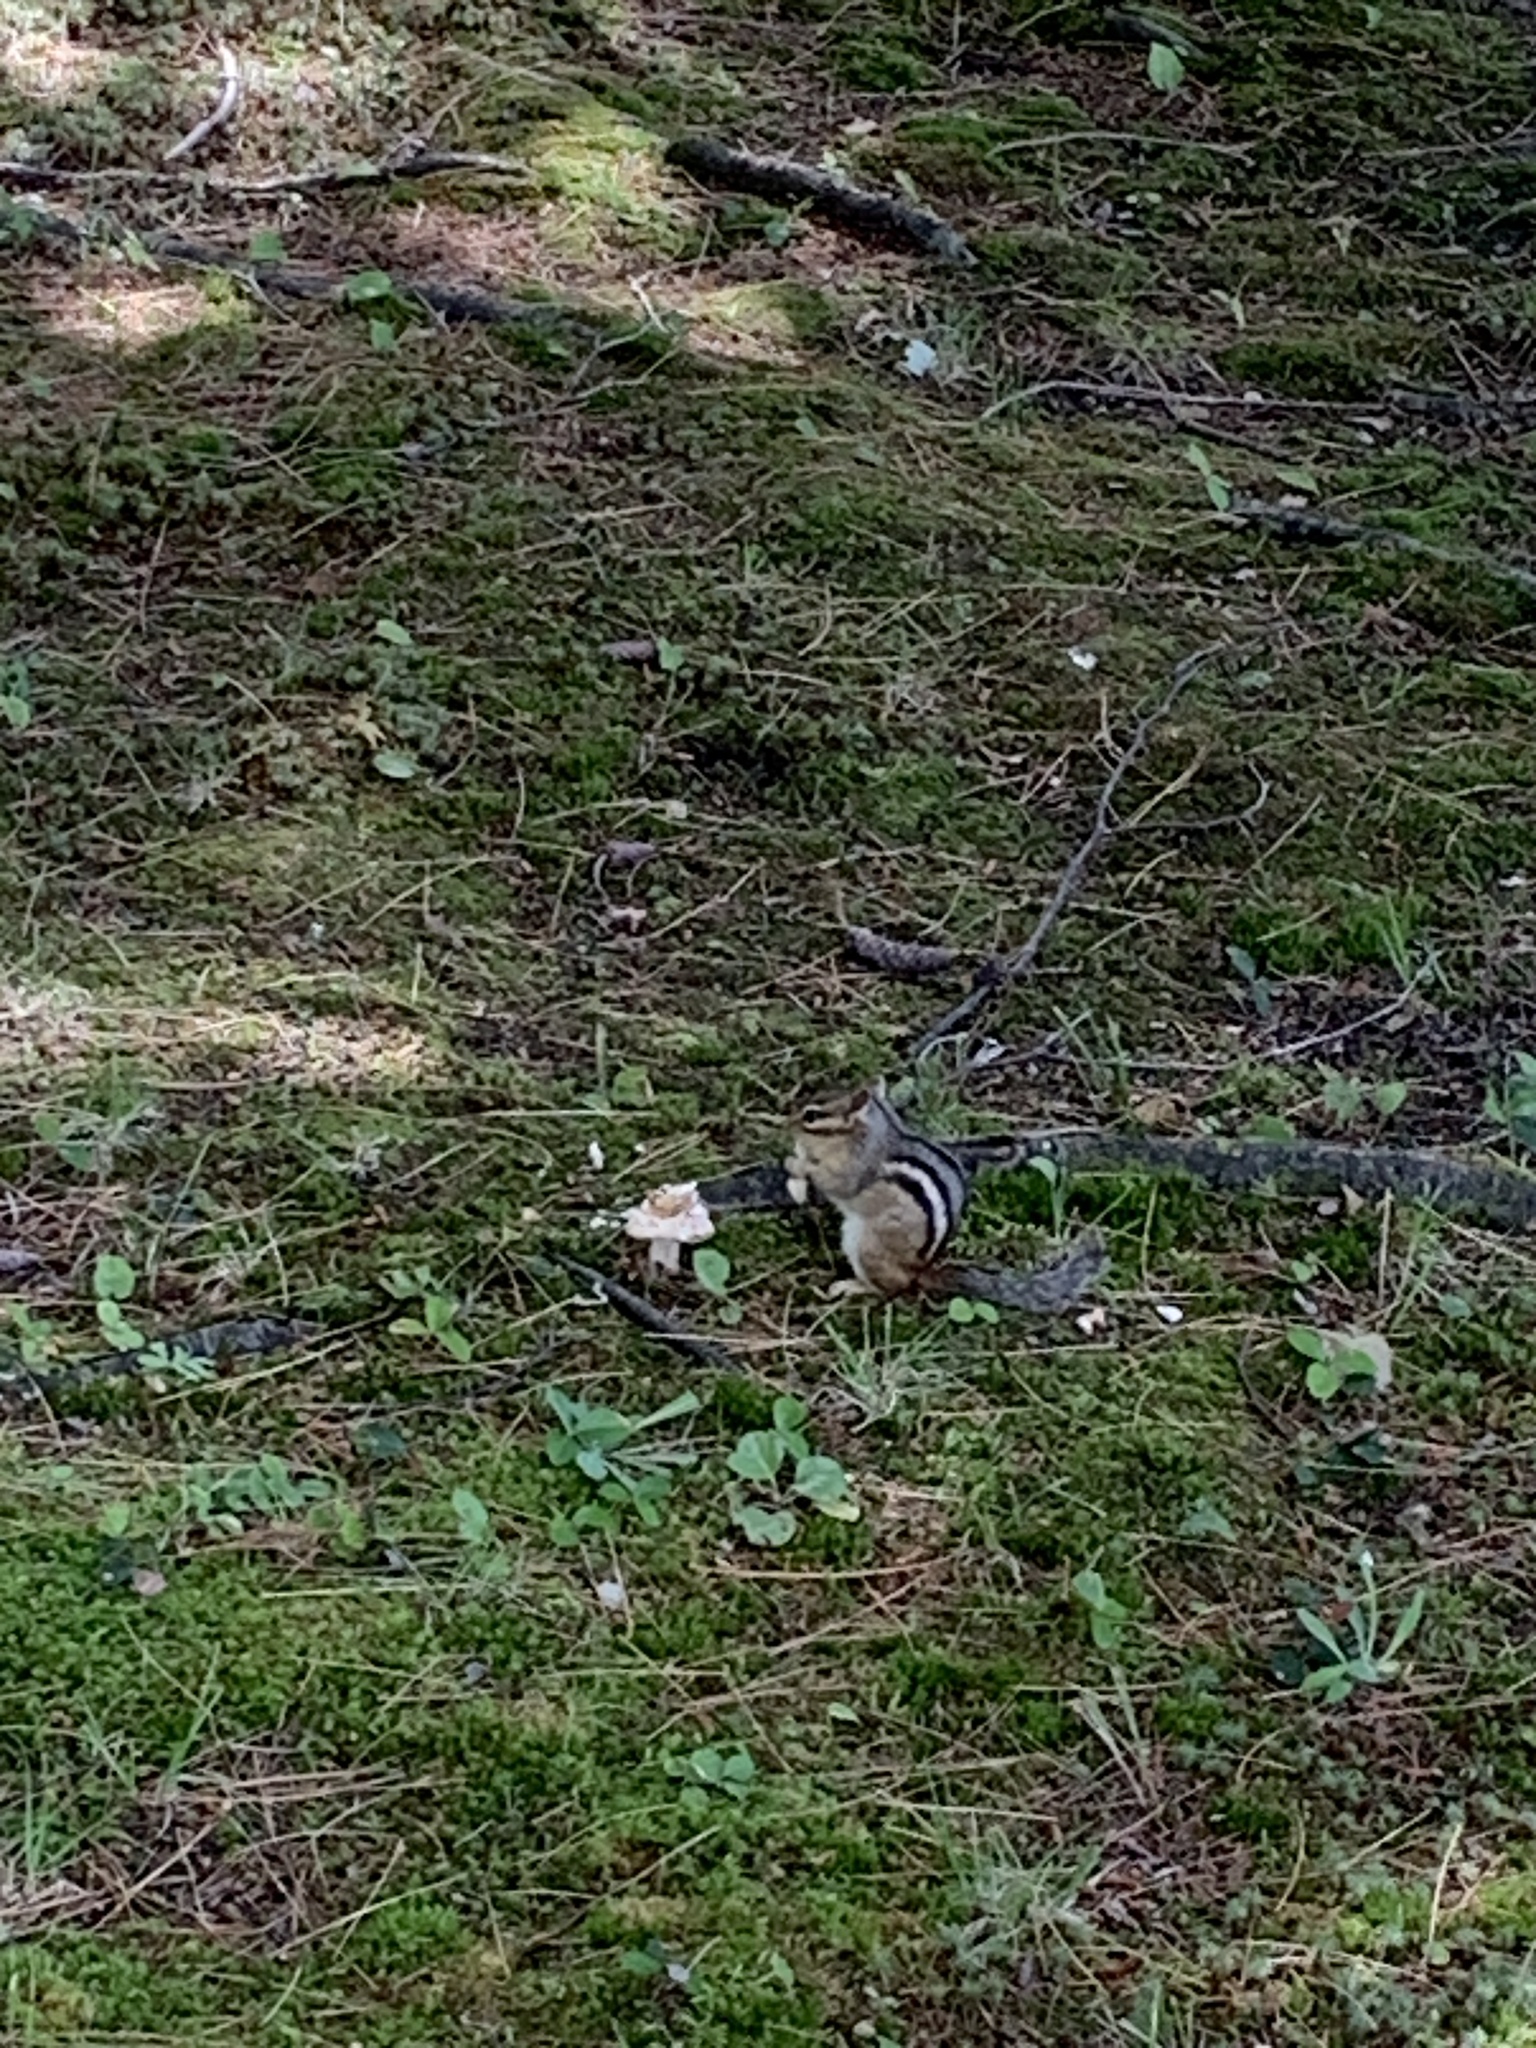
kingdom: Animalia
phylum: Chordata
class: Mammalia
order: Rodentia
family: Sciuridae
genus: Tamias
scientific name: Tamias striatus
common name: Eastern chipmunk
